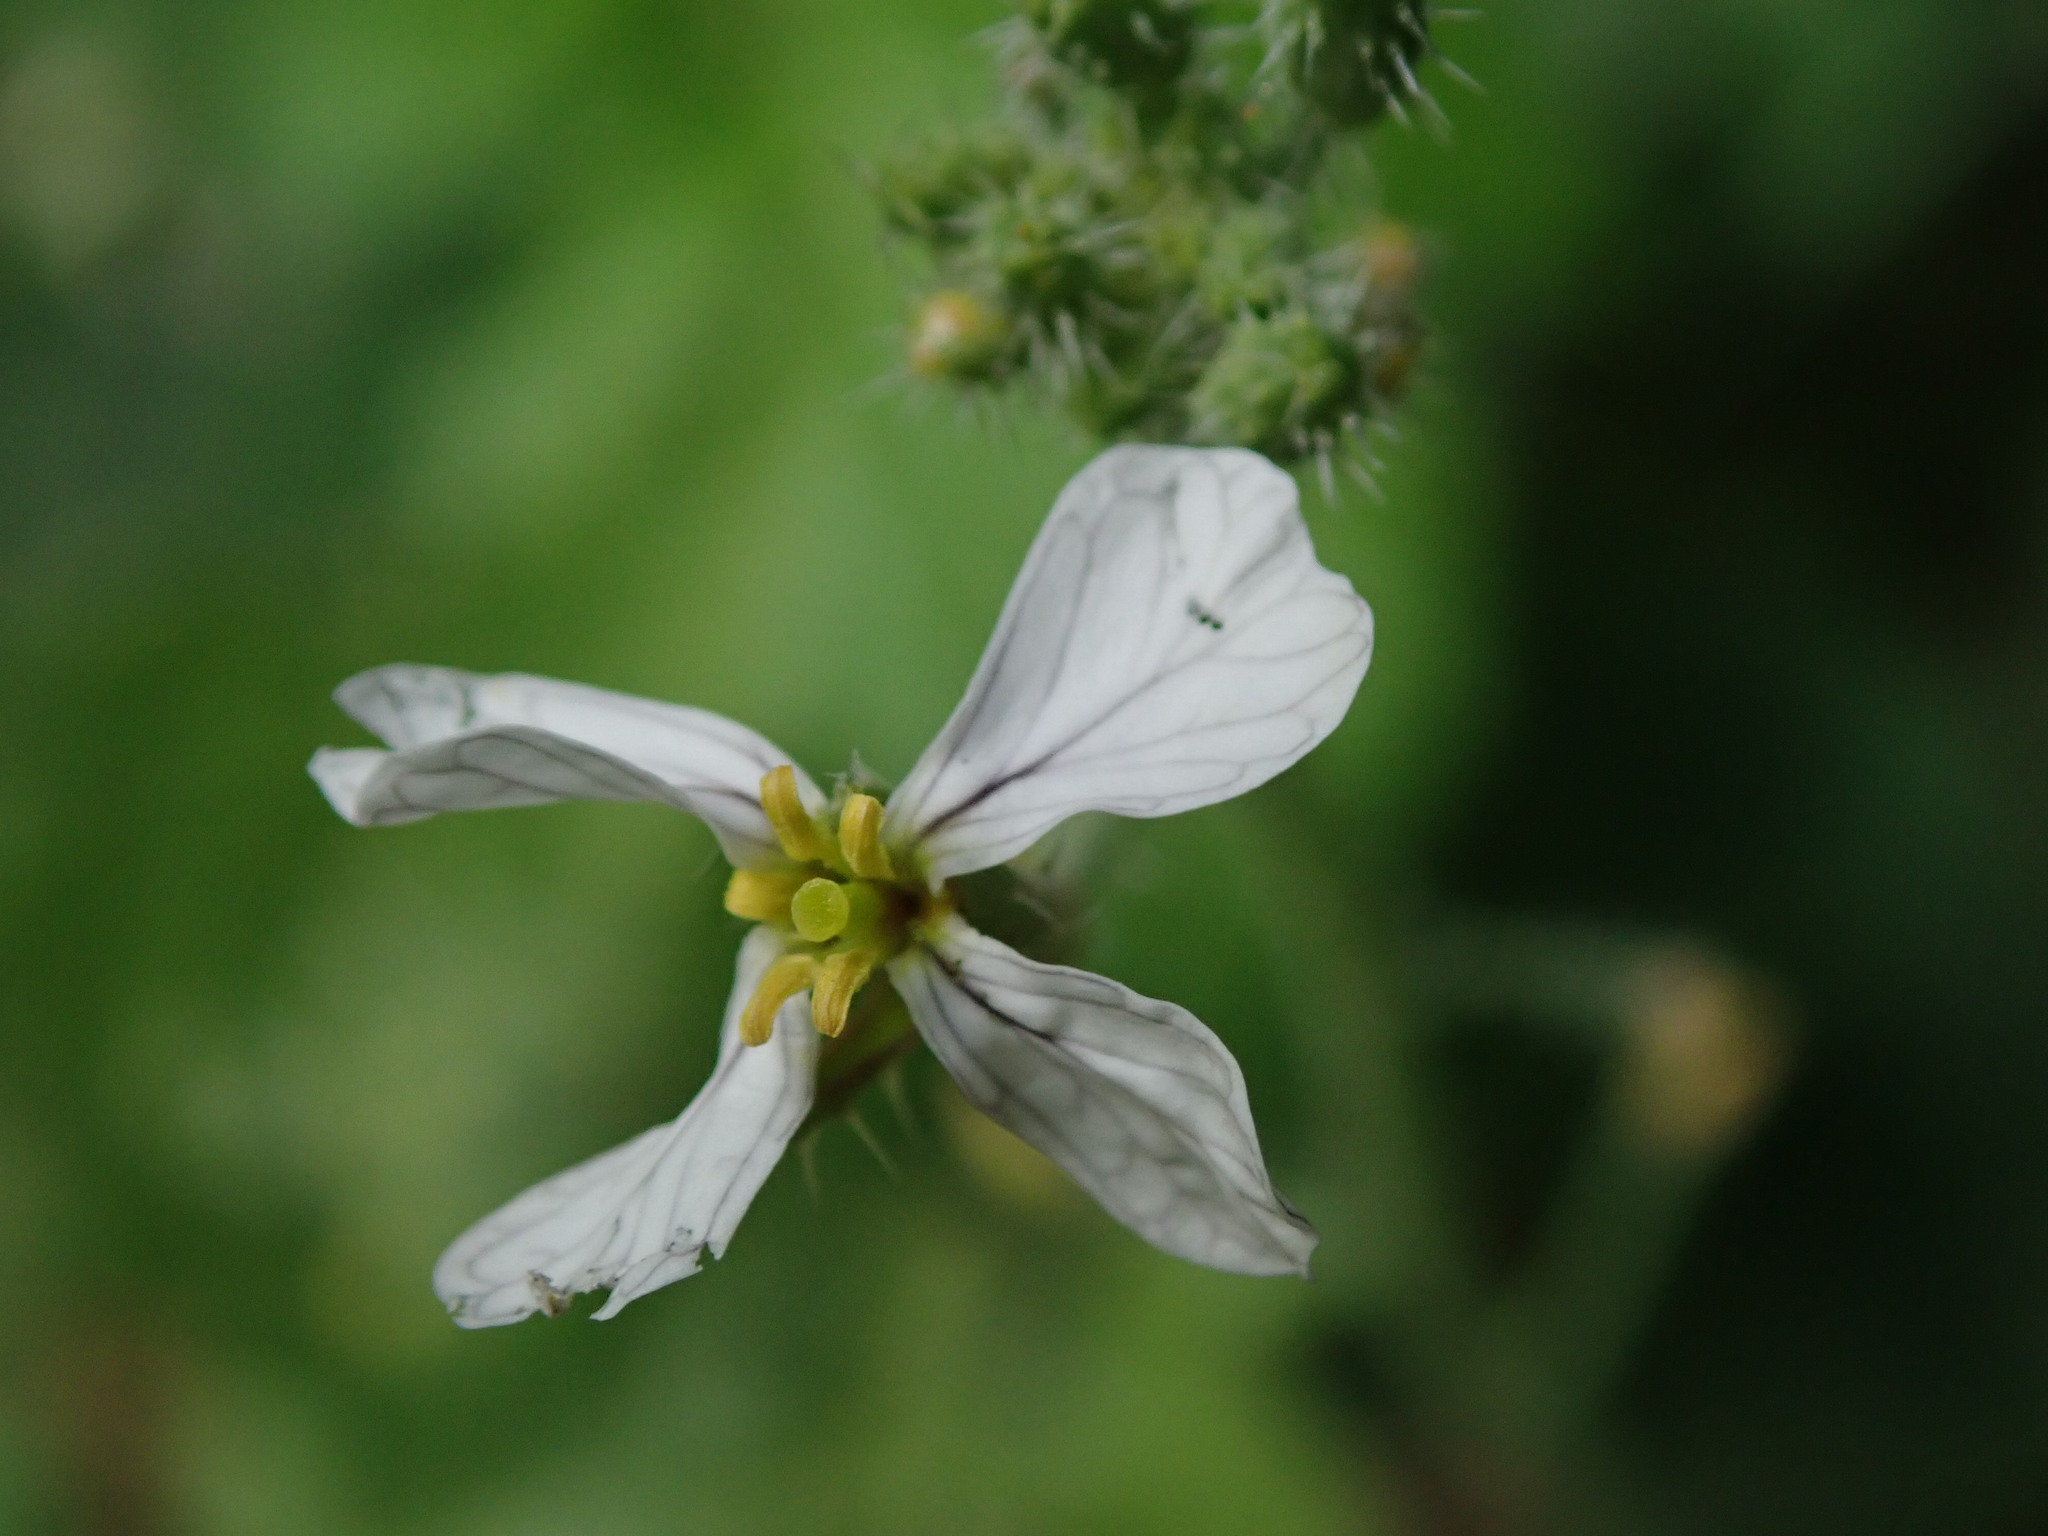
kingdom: Plantae
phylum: Tracheophyta
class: Magnoliopsida
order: Brassicales
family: Brassicaceae
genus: Raphanus
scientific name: Raphanus raphanistrum
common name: Wild radish
